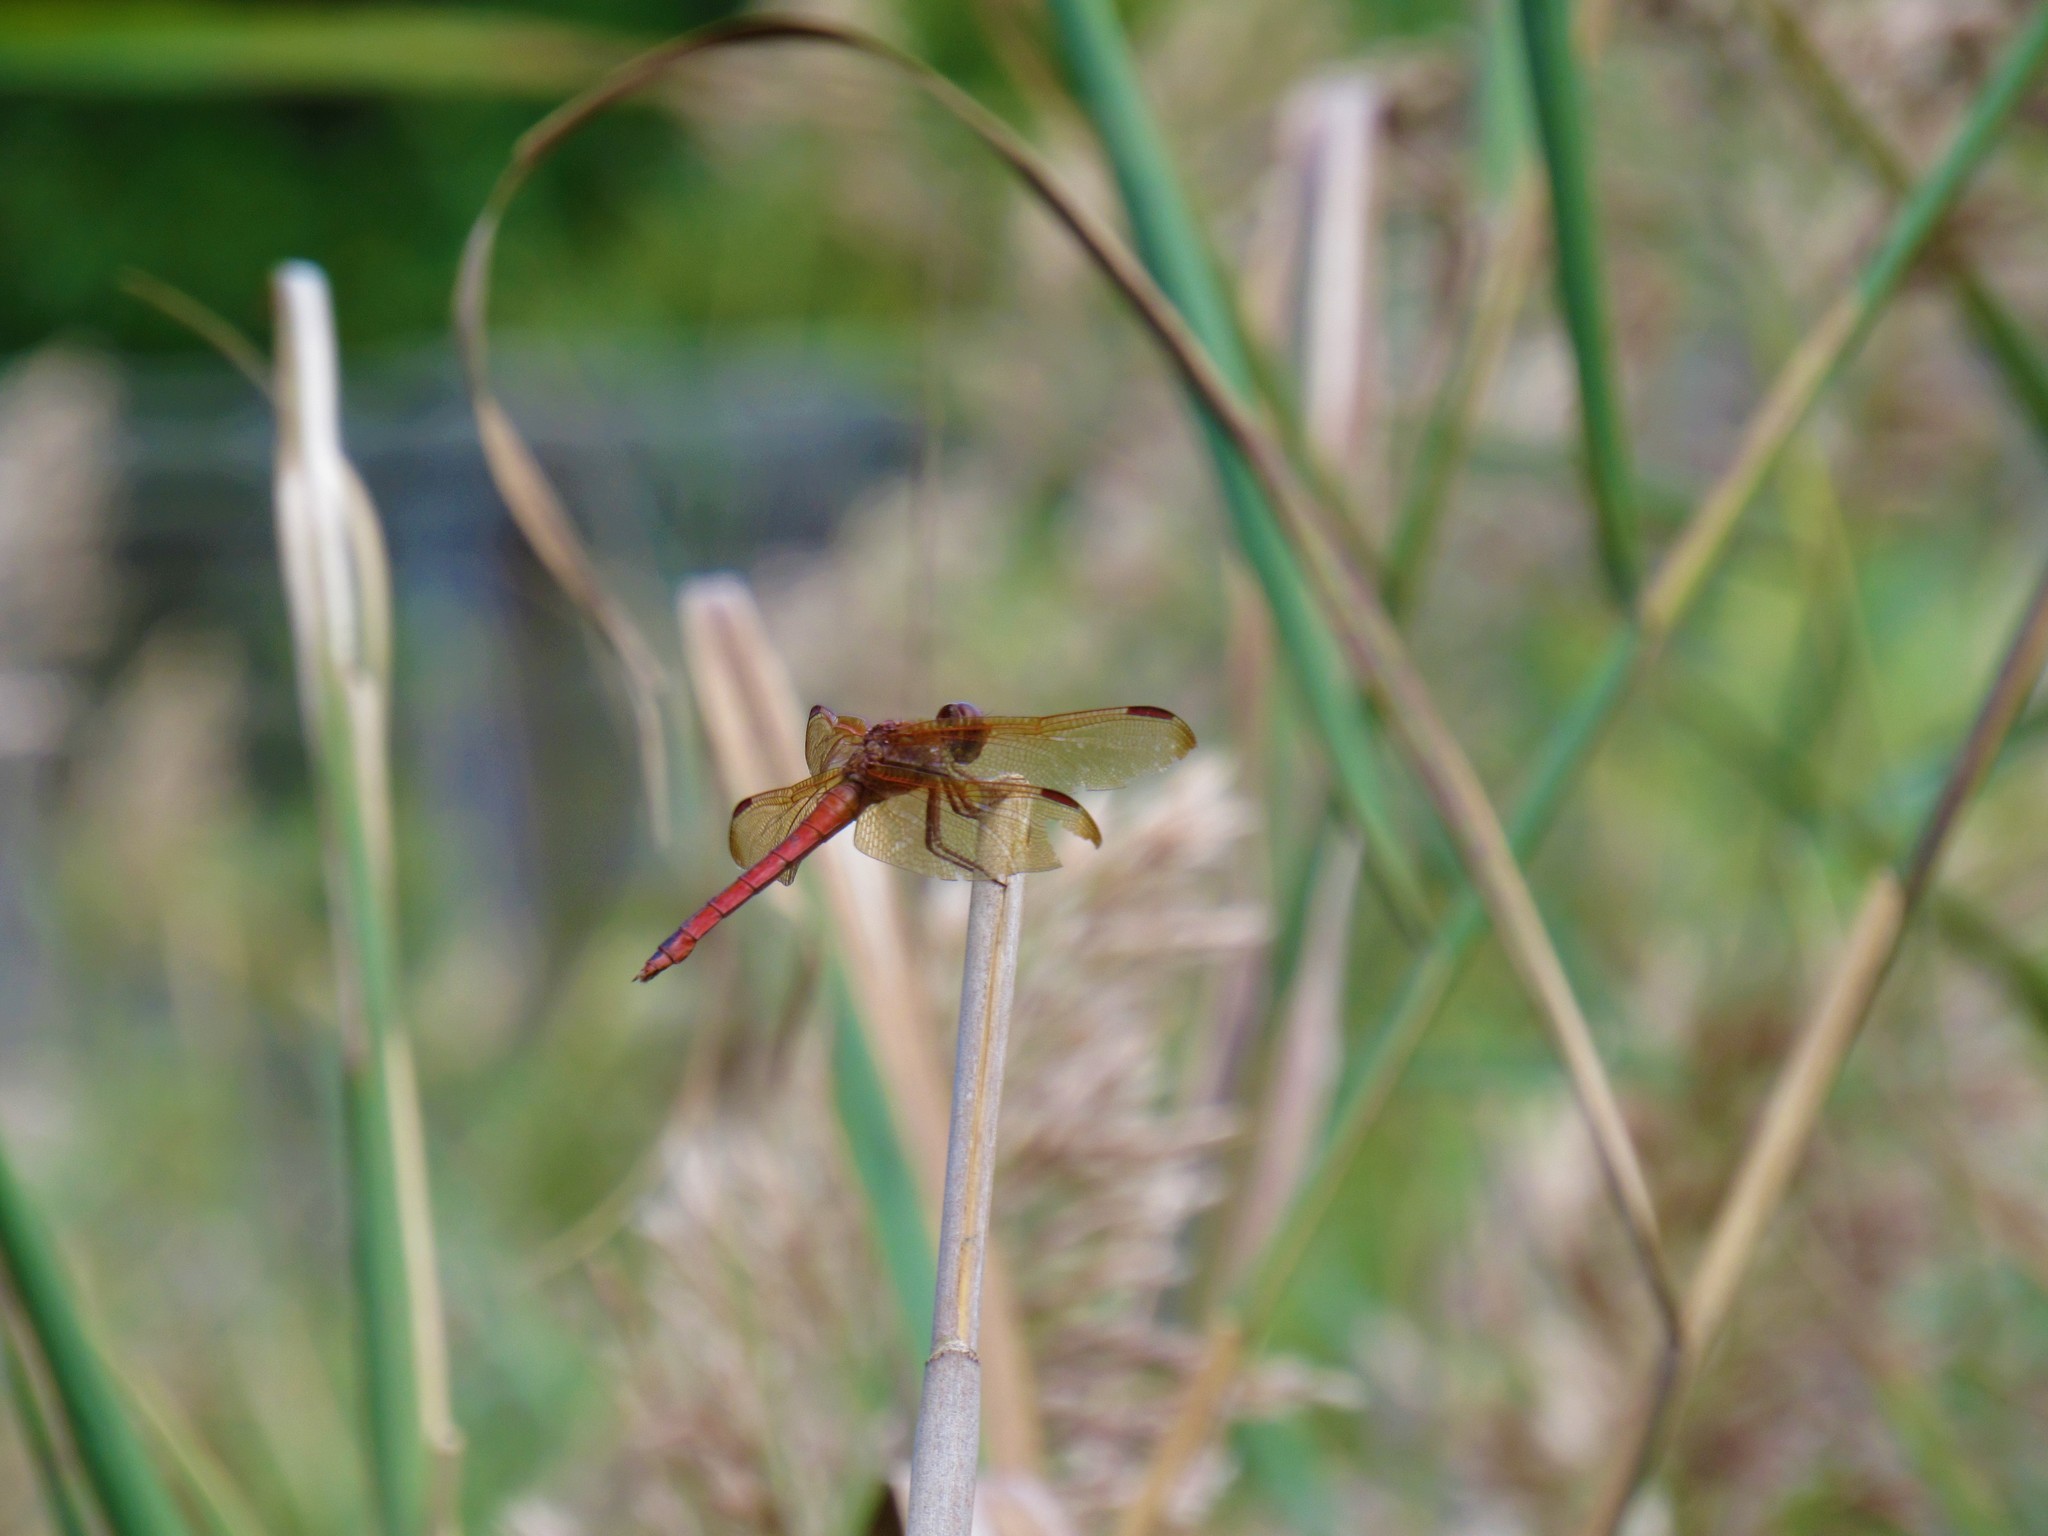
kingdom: Animalia
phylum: Arthropoda
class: Insecta
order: Odonata
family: Libellulidae
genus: Libellula
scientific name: Libellula needhami
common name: Needham's skimmer
